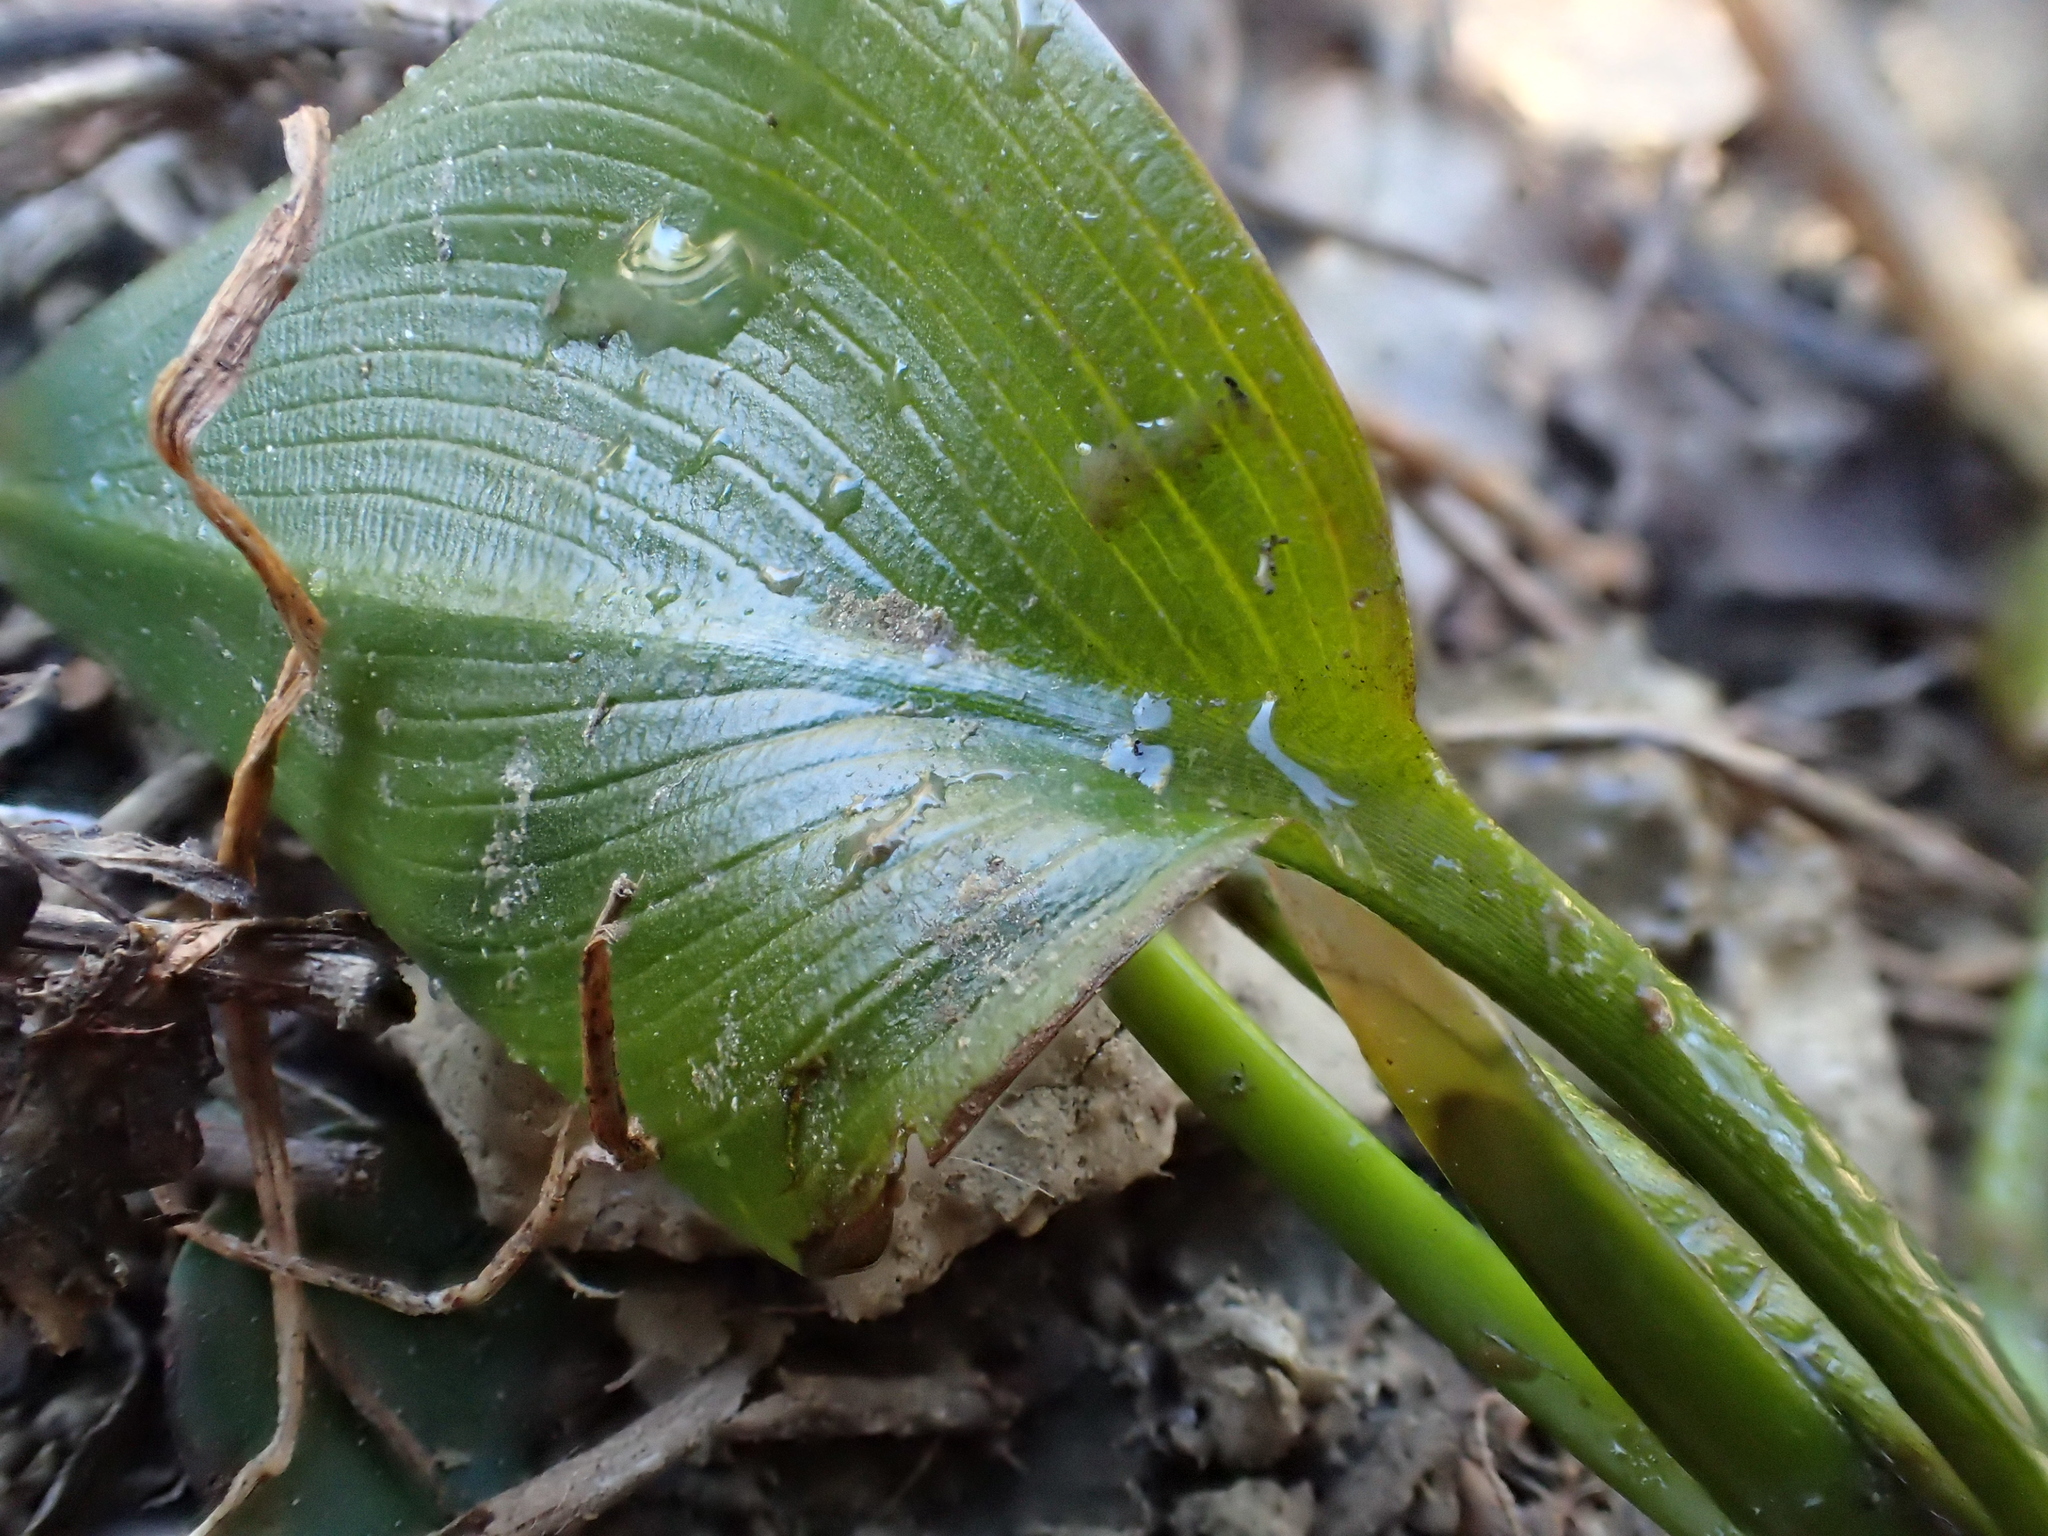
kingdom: Plantae
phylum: Tracheophyta
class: Liliopsida
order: Alismatales
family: Potamogetonaceae
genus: Potamogeton
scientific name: Potamogeton natans
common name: Broad-leaved pondweed
